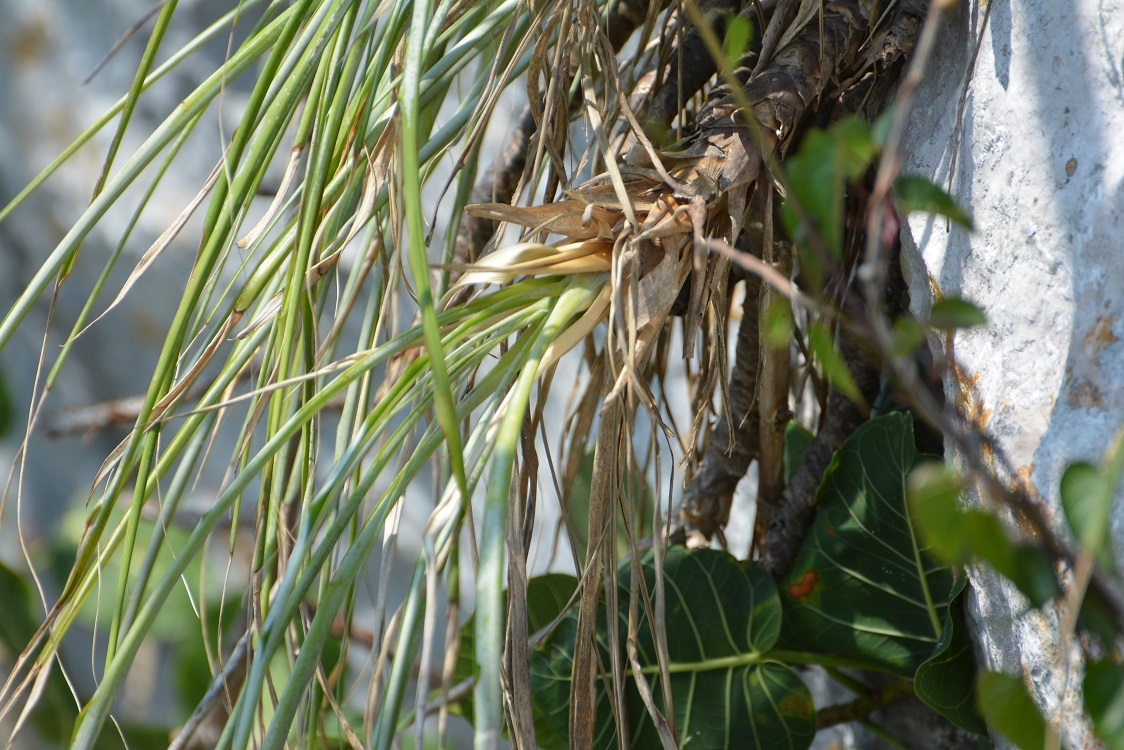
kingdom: Plantae
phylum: Tracheophyta
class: Liliopsida
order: Poales
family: Bromeliaceae
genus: Pitcairnia
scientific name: Pitcairnia breedlovei
